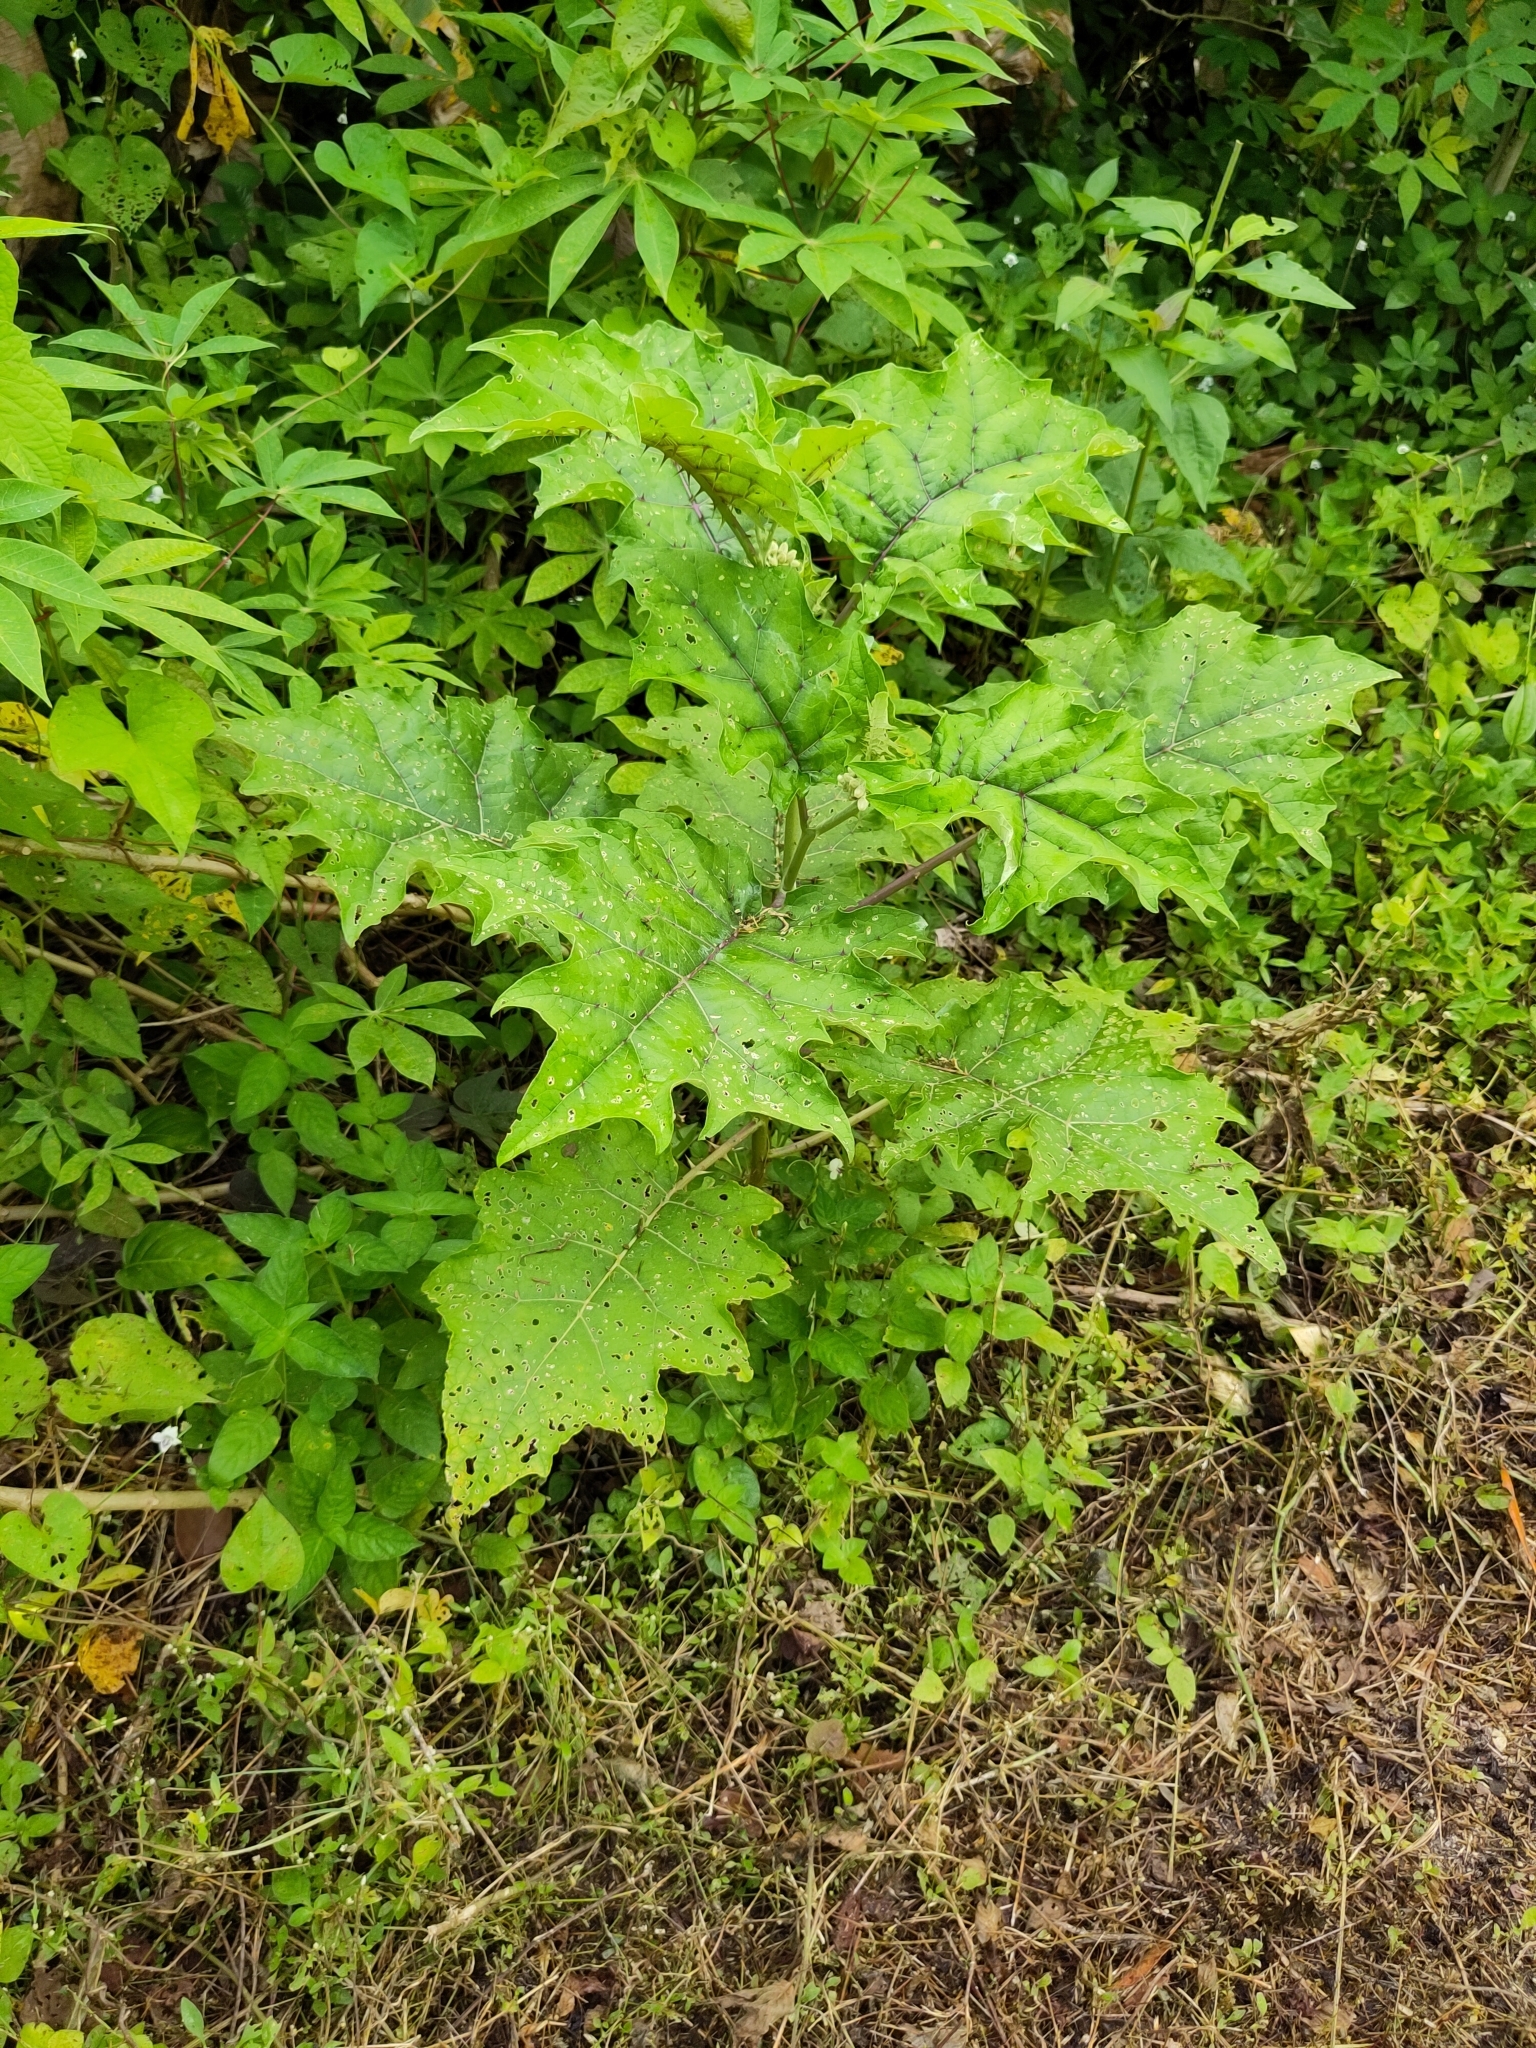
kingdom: Plantae
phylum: Tracheophyta
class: Magnoliopsida
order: Solanales
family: Solanaceae
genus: Solanum
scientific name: Solanum
